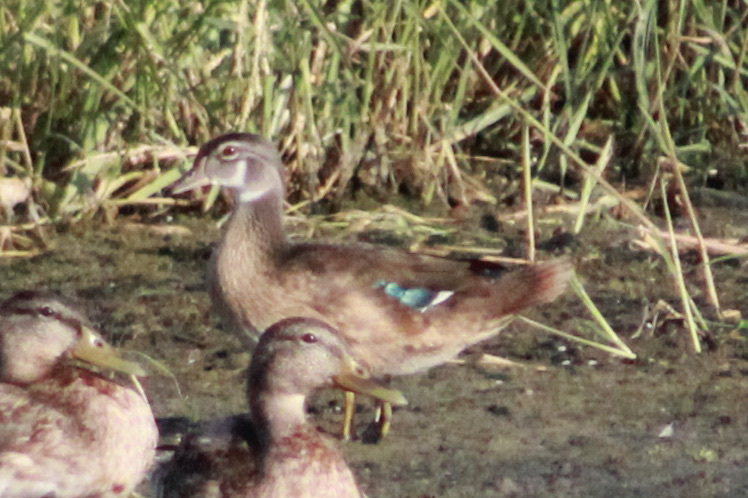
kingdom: Animalia
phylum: Chordata
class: Aves
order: Anseriformes
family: Anatidae
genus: Aix
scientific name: Aix sponsa
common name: Wood duck
